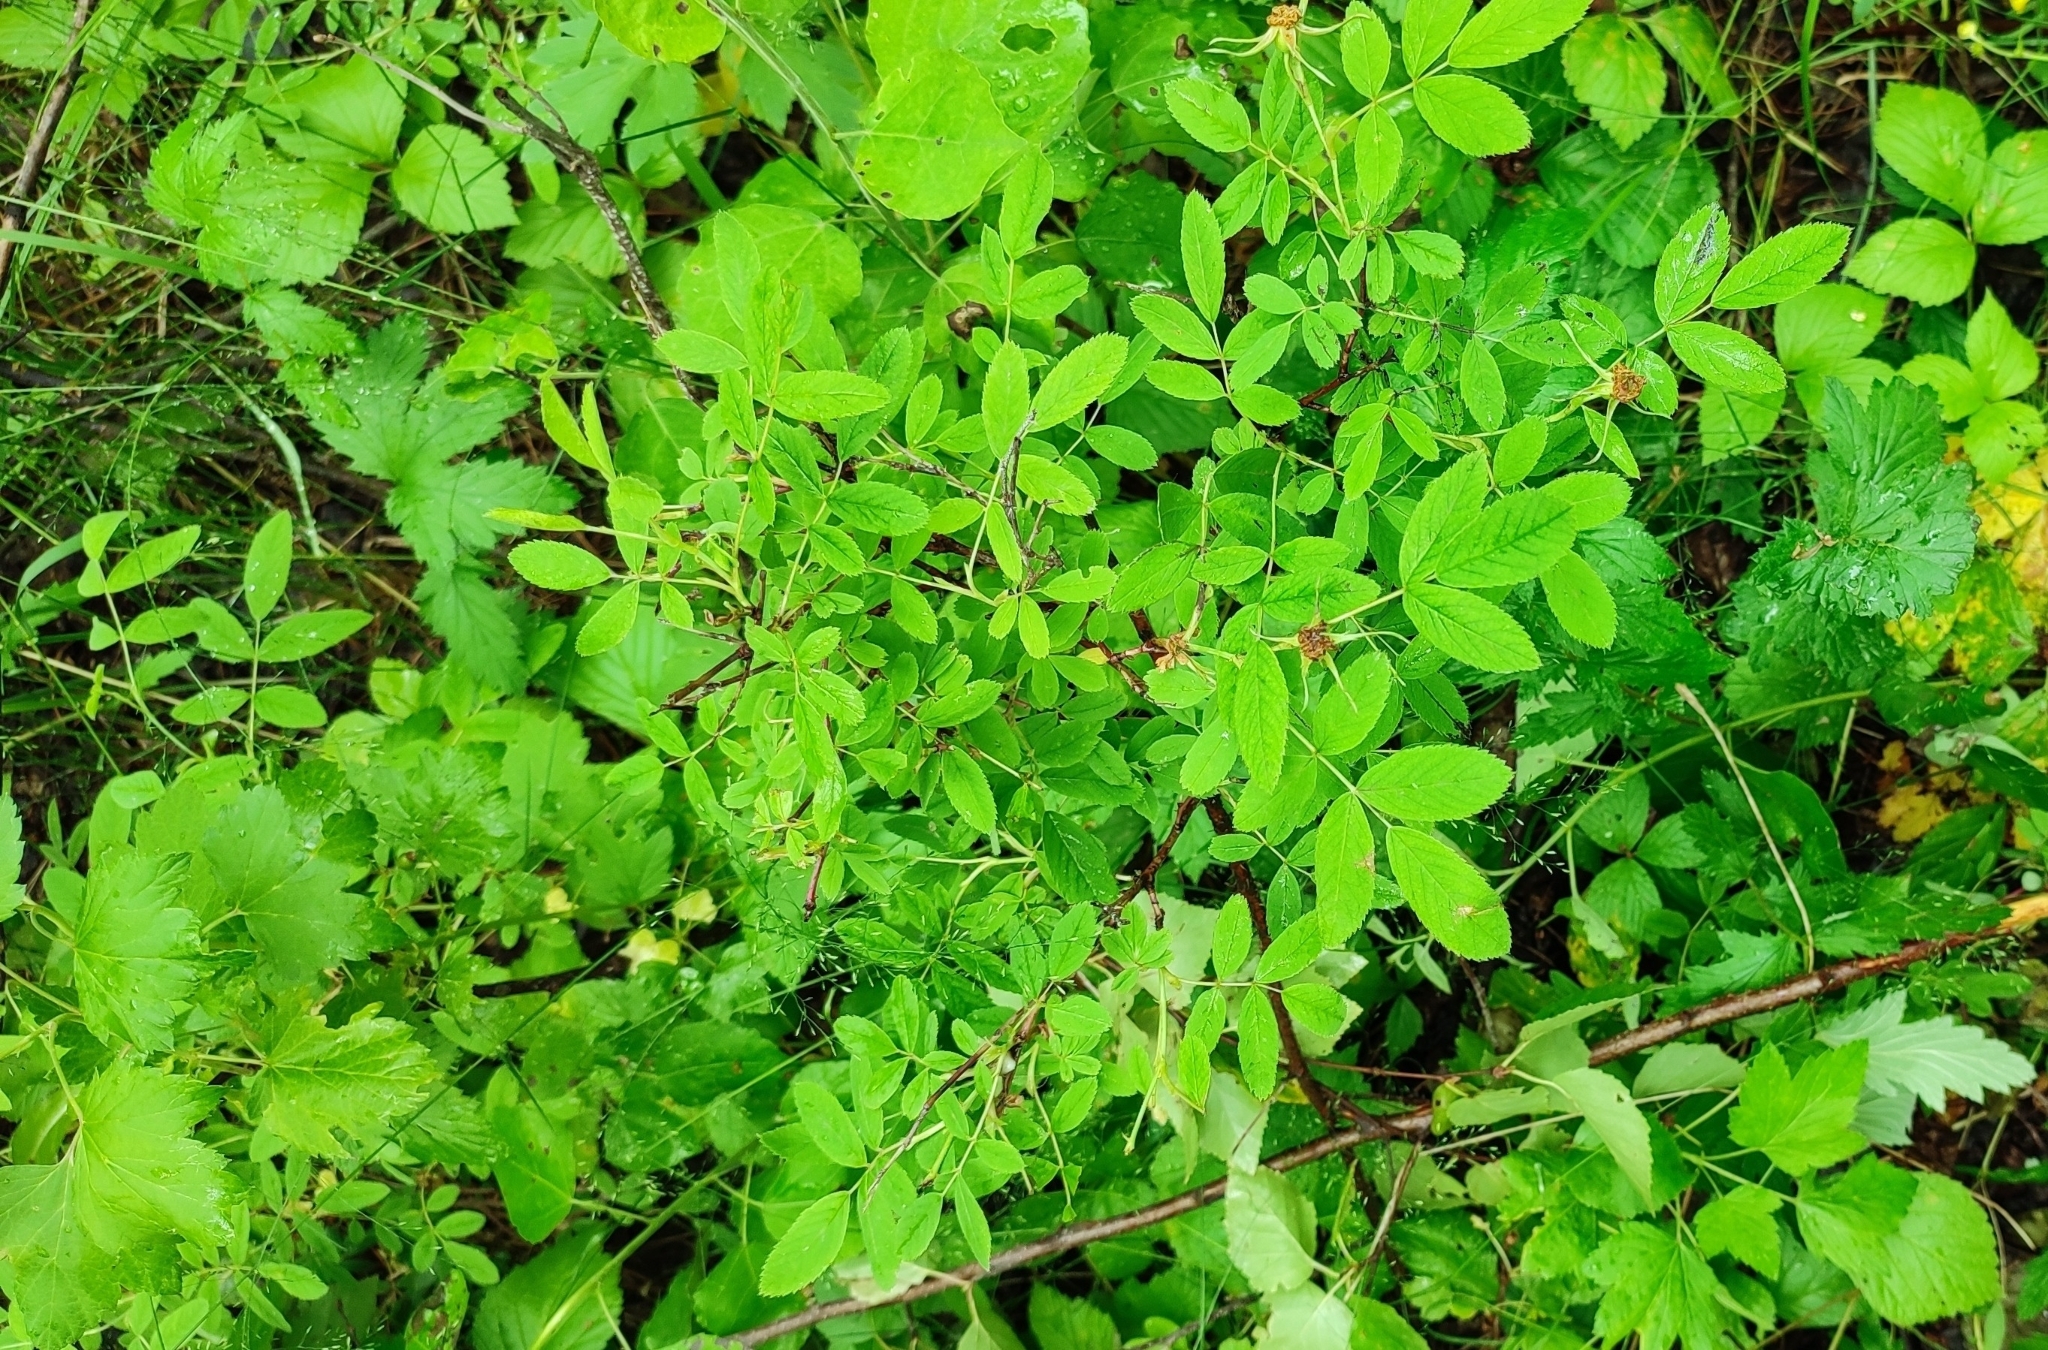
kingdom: Plantae
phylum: Tracheophyta
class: Magnoliopsida
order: Rosales
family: Rosaceae
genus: Rosa
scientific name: Rosa majalis
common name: Cinnamon rose
